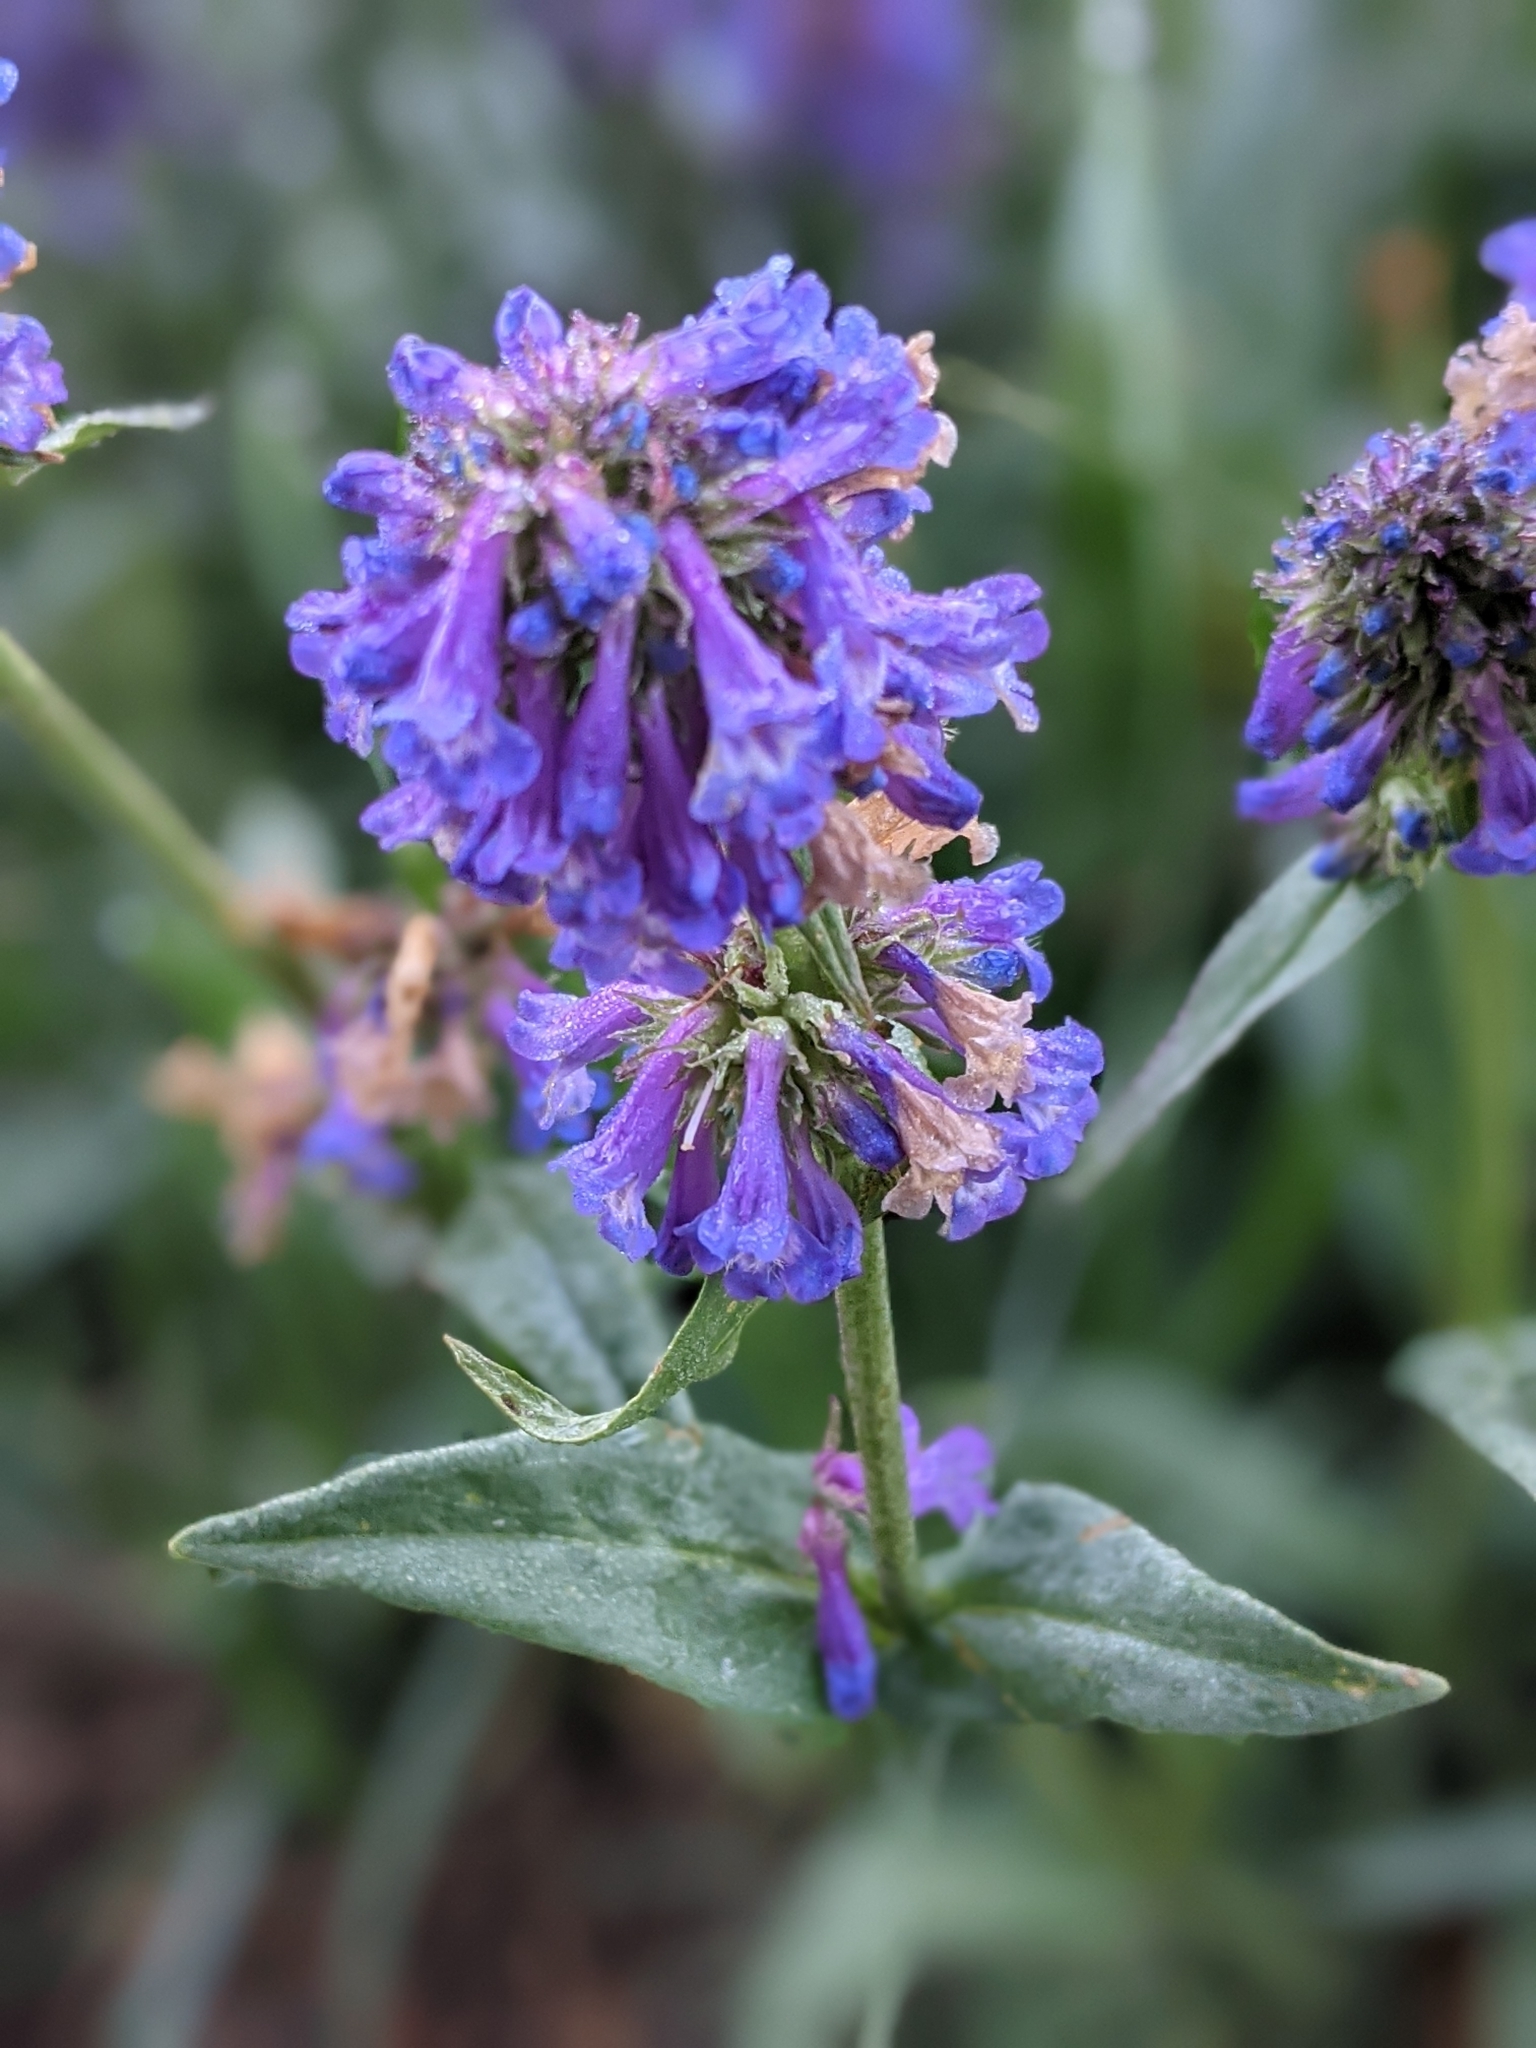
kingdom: Plantae
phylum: Tracheophyta
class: Magnoliopsida
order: Lamiales
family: Plantaginaceae
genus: Penstemon
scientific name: Penstemon procerus
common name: Small-flower penstemon
